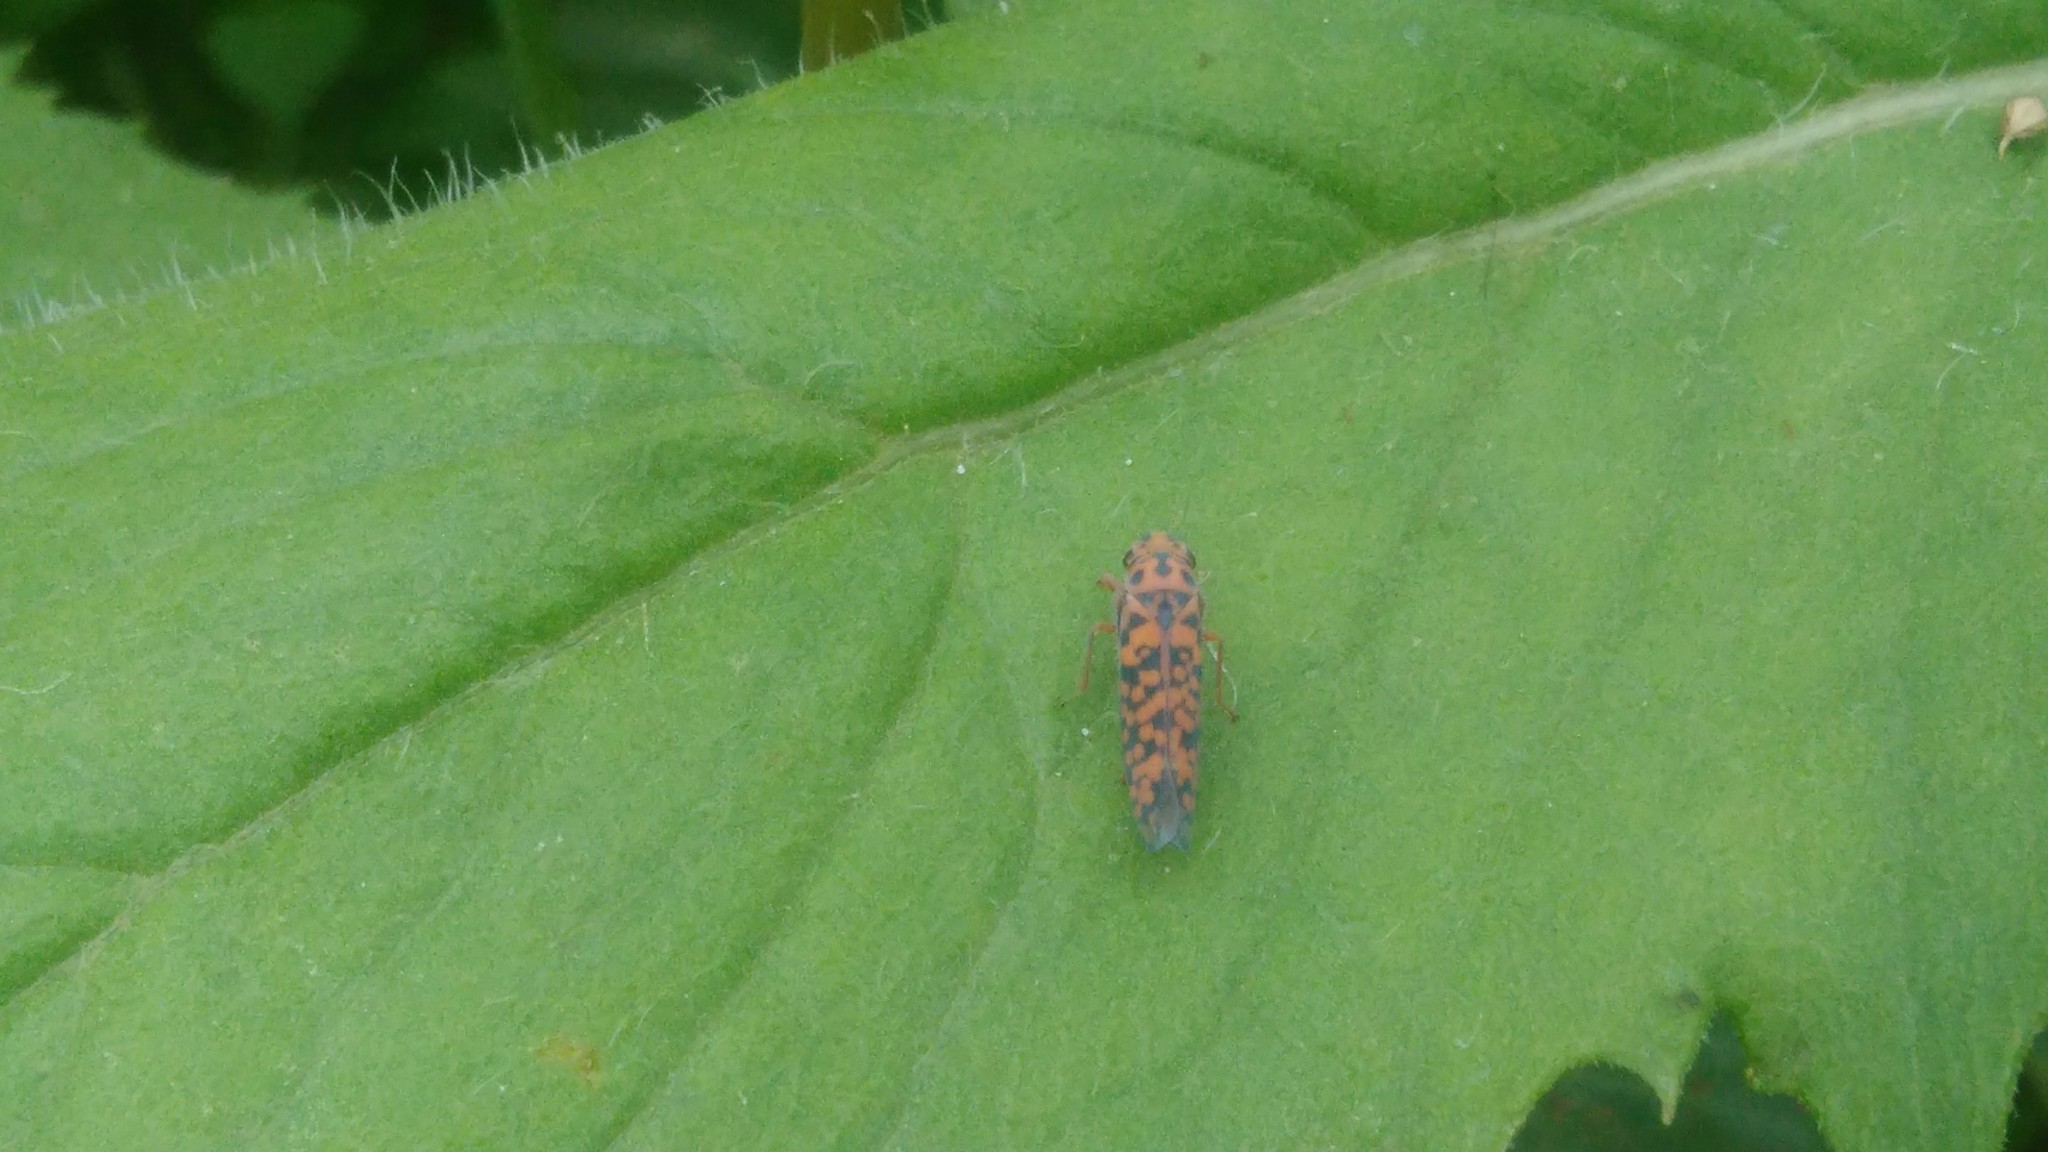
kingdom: Animalia
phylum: Arthropoda
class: Insecta
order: Hemiptera
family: Cicadellidae
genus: Pawiloma
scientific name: Pawiloma victima
